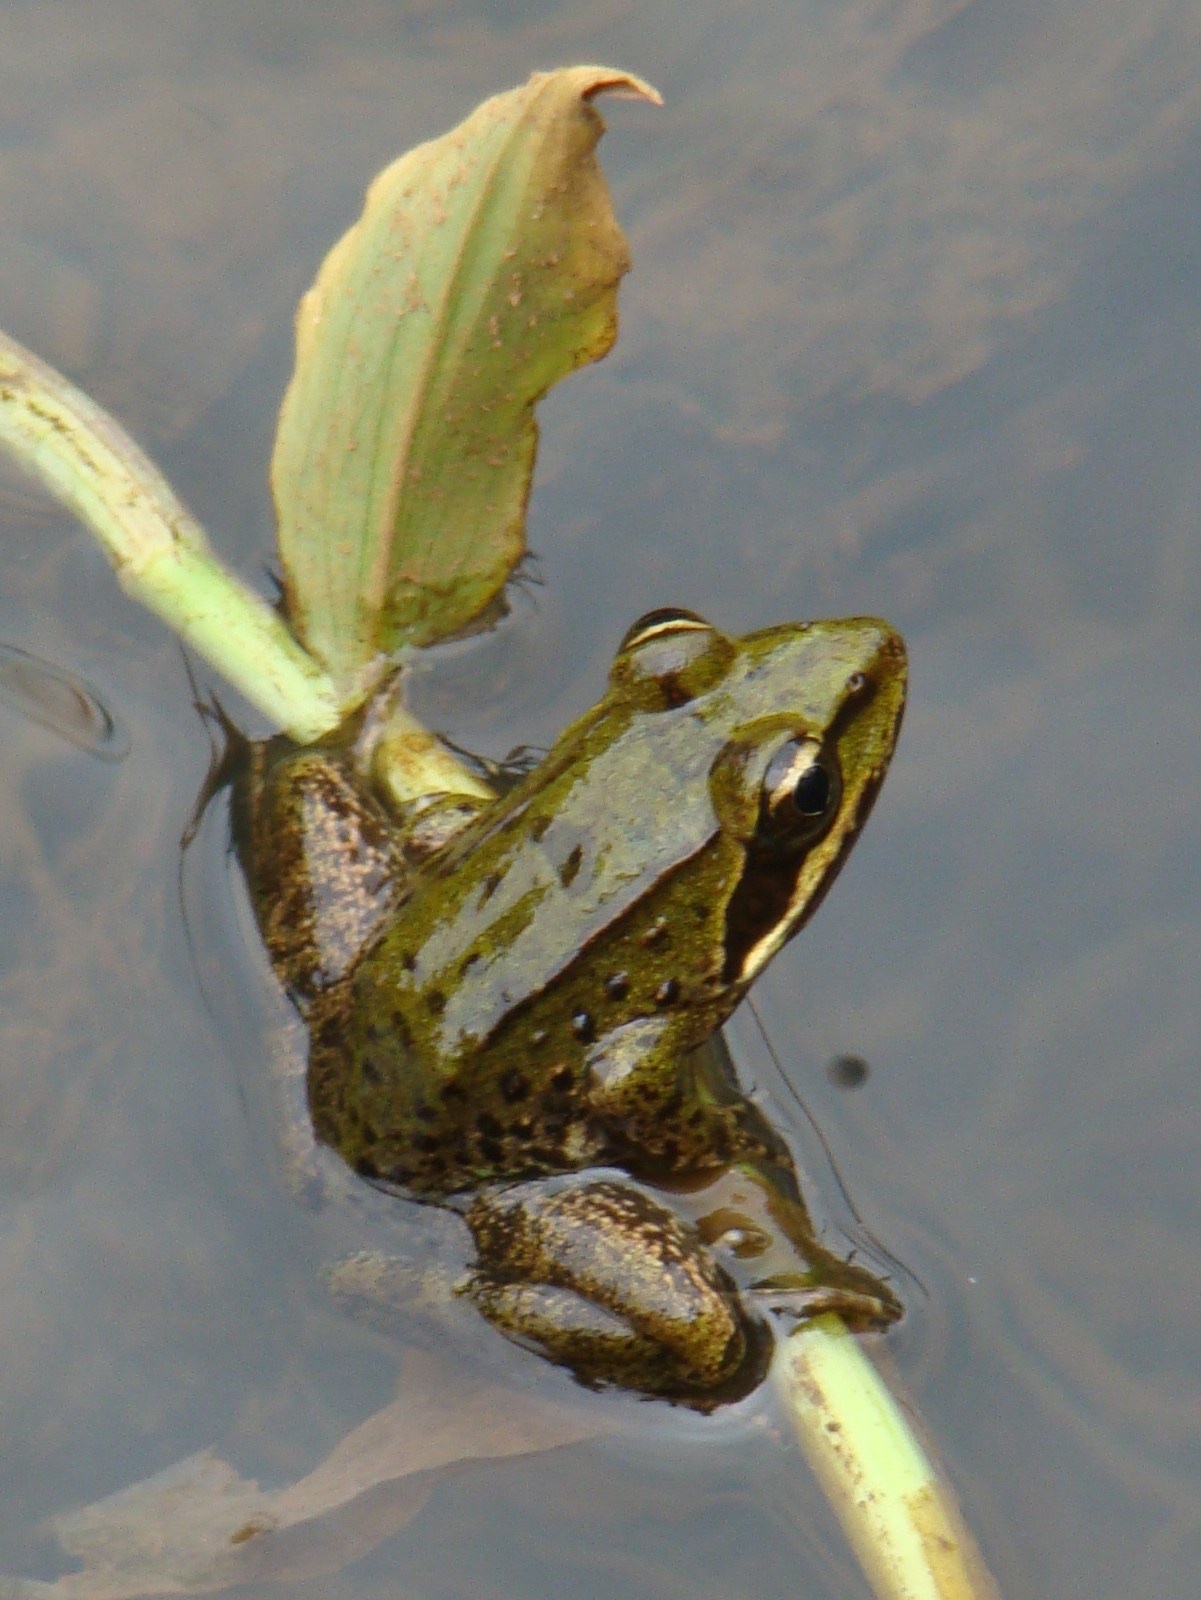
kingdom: Animalia
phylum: Chordata
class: Amphibia
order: Anura
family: Pyxicephalidae
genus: Amietia
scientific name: Amietia tenuoplicata
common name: River frog
